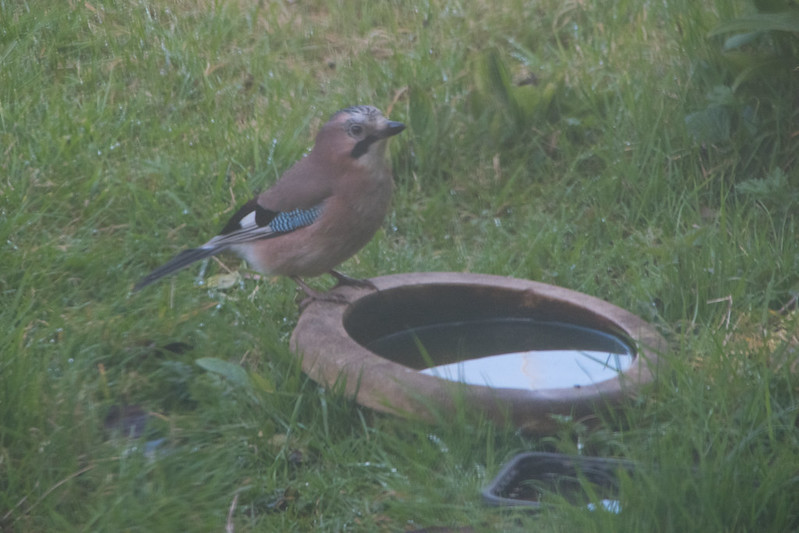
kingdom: Animalia
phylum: Chordata
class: Aves
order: Passeriformes
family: Corvidae
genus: Garrulus
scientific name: Garrulus glandarius
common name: Eurasian jay
